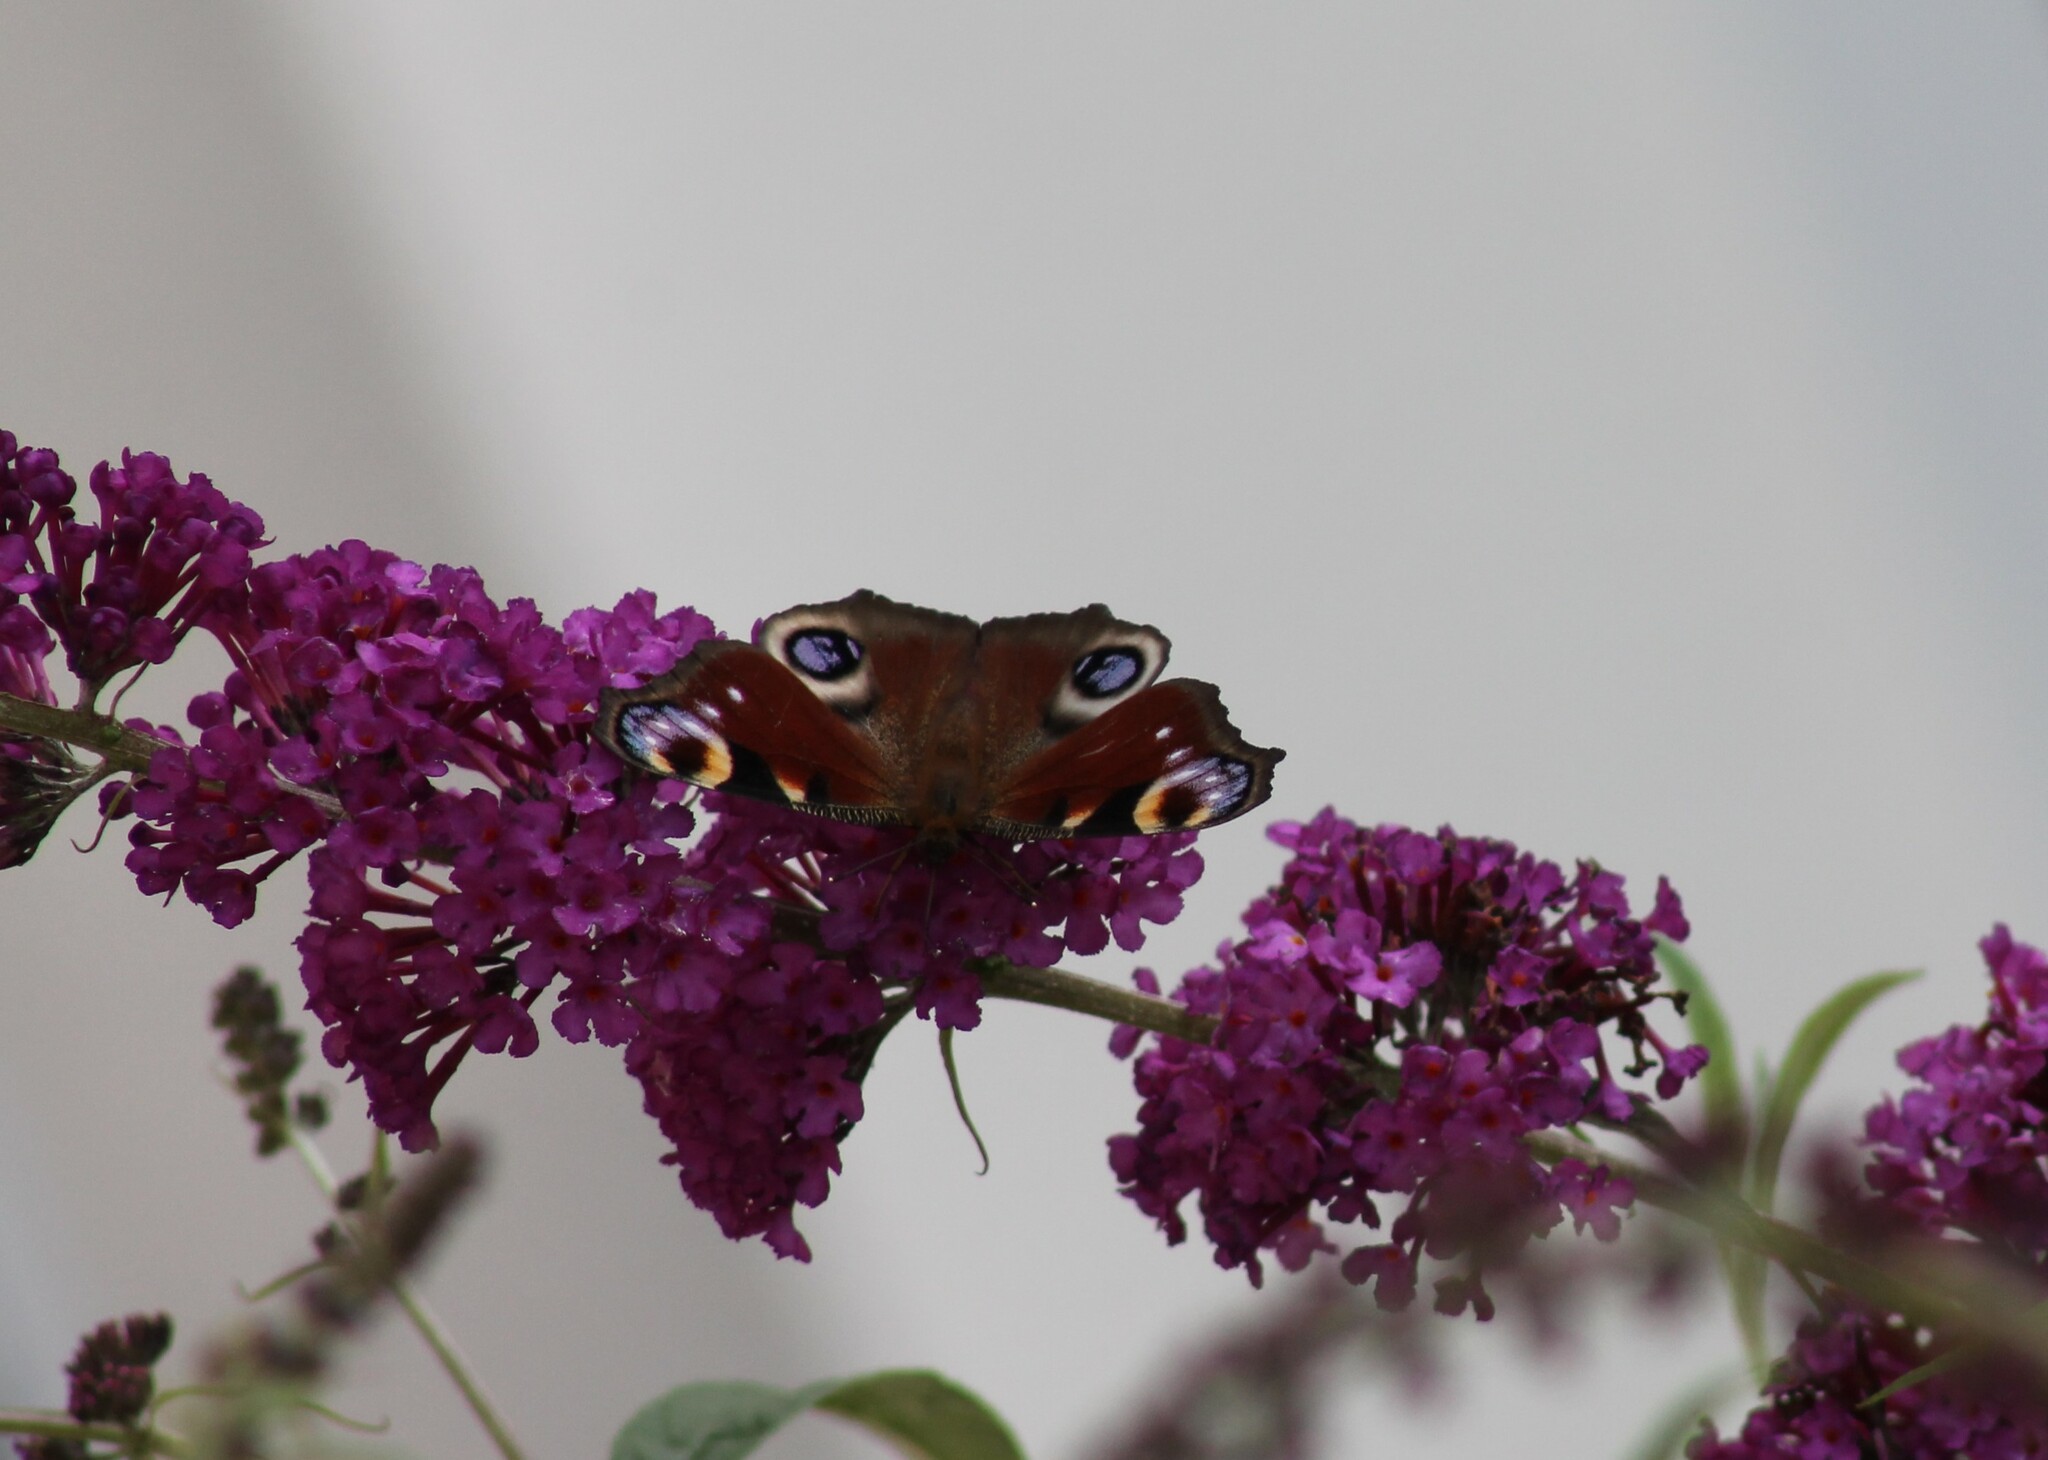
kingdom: Animalia
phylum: Arthropoda
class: Insecta
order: Lepidoptera
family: Nymphalidae
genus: Aglais
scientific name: Aglais io
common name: Peacock
